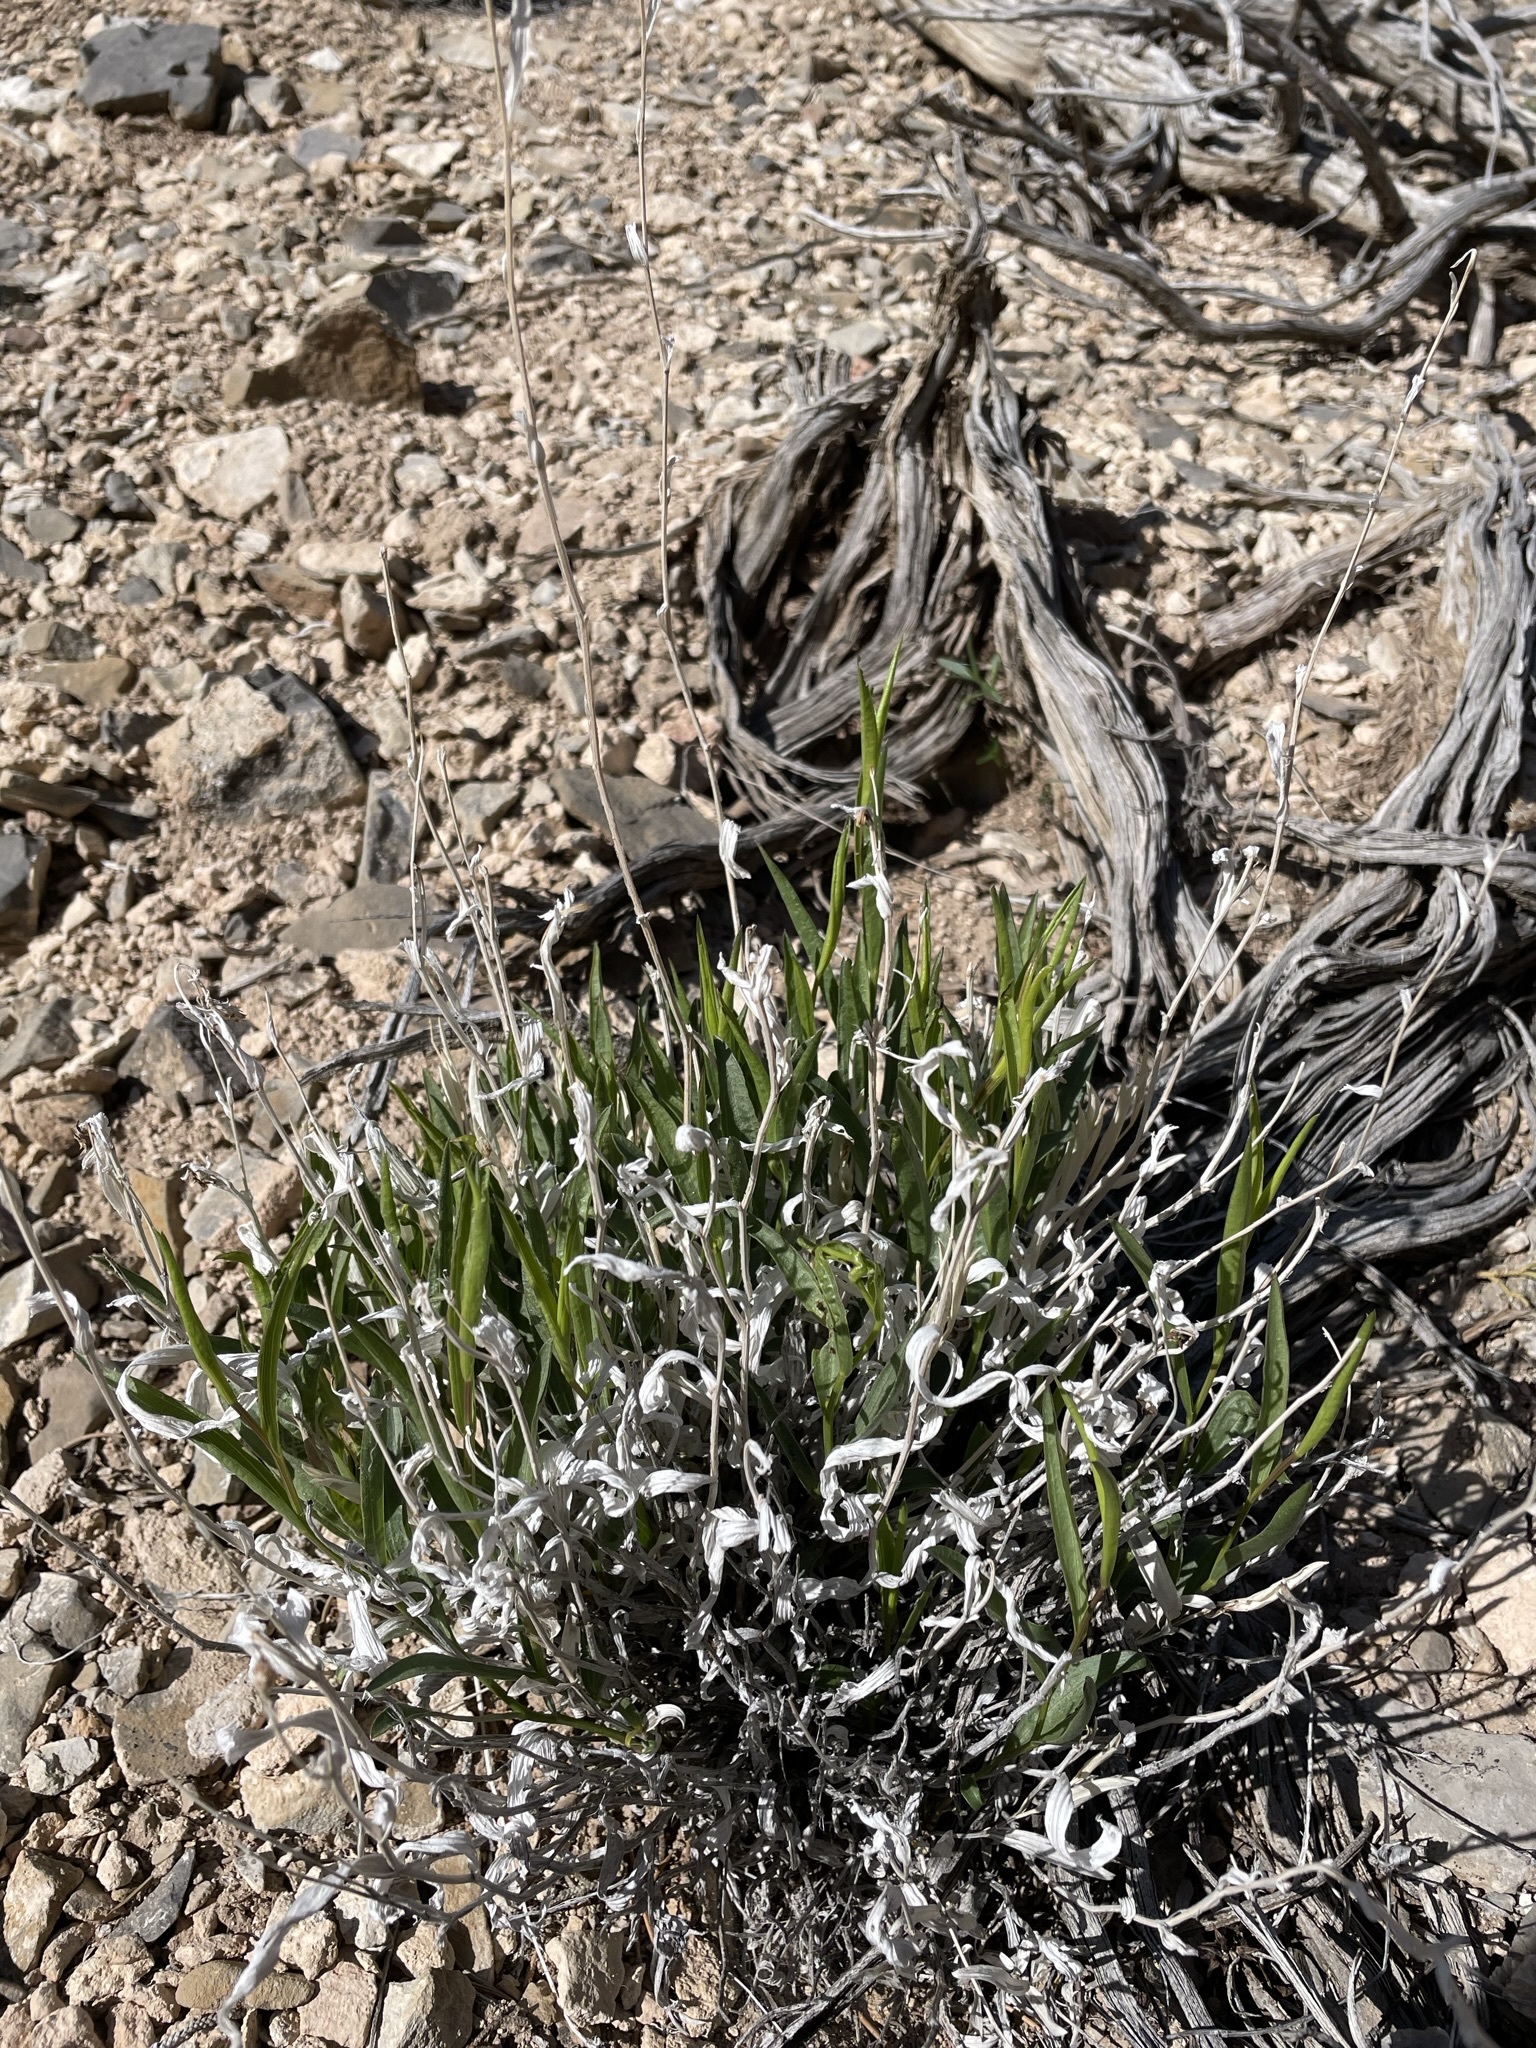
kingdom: Plantae
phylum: Tracheophyta
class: Magnoliopsida
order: Asterales
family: Asteraceae
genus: Cuniculotinus
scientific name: Cuniculotinus gramineus
